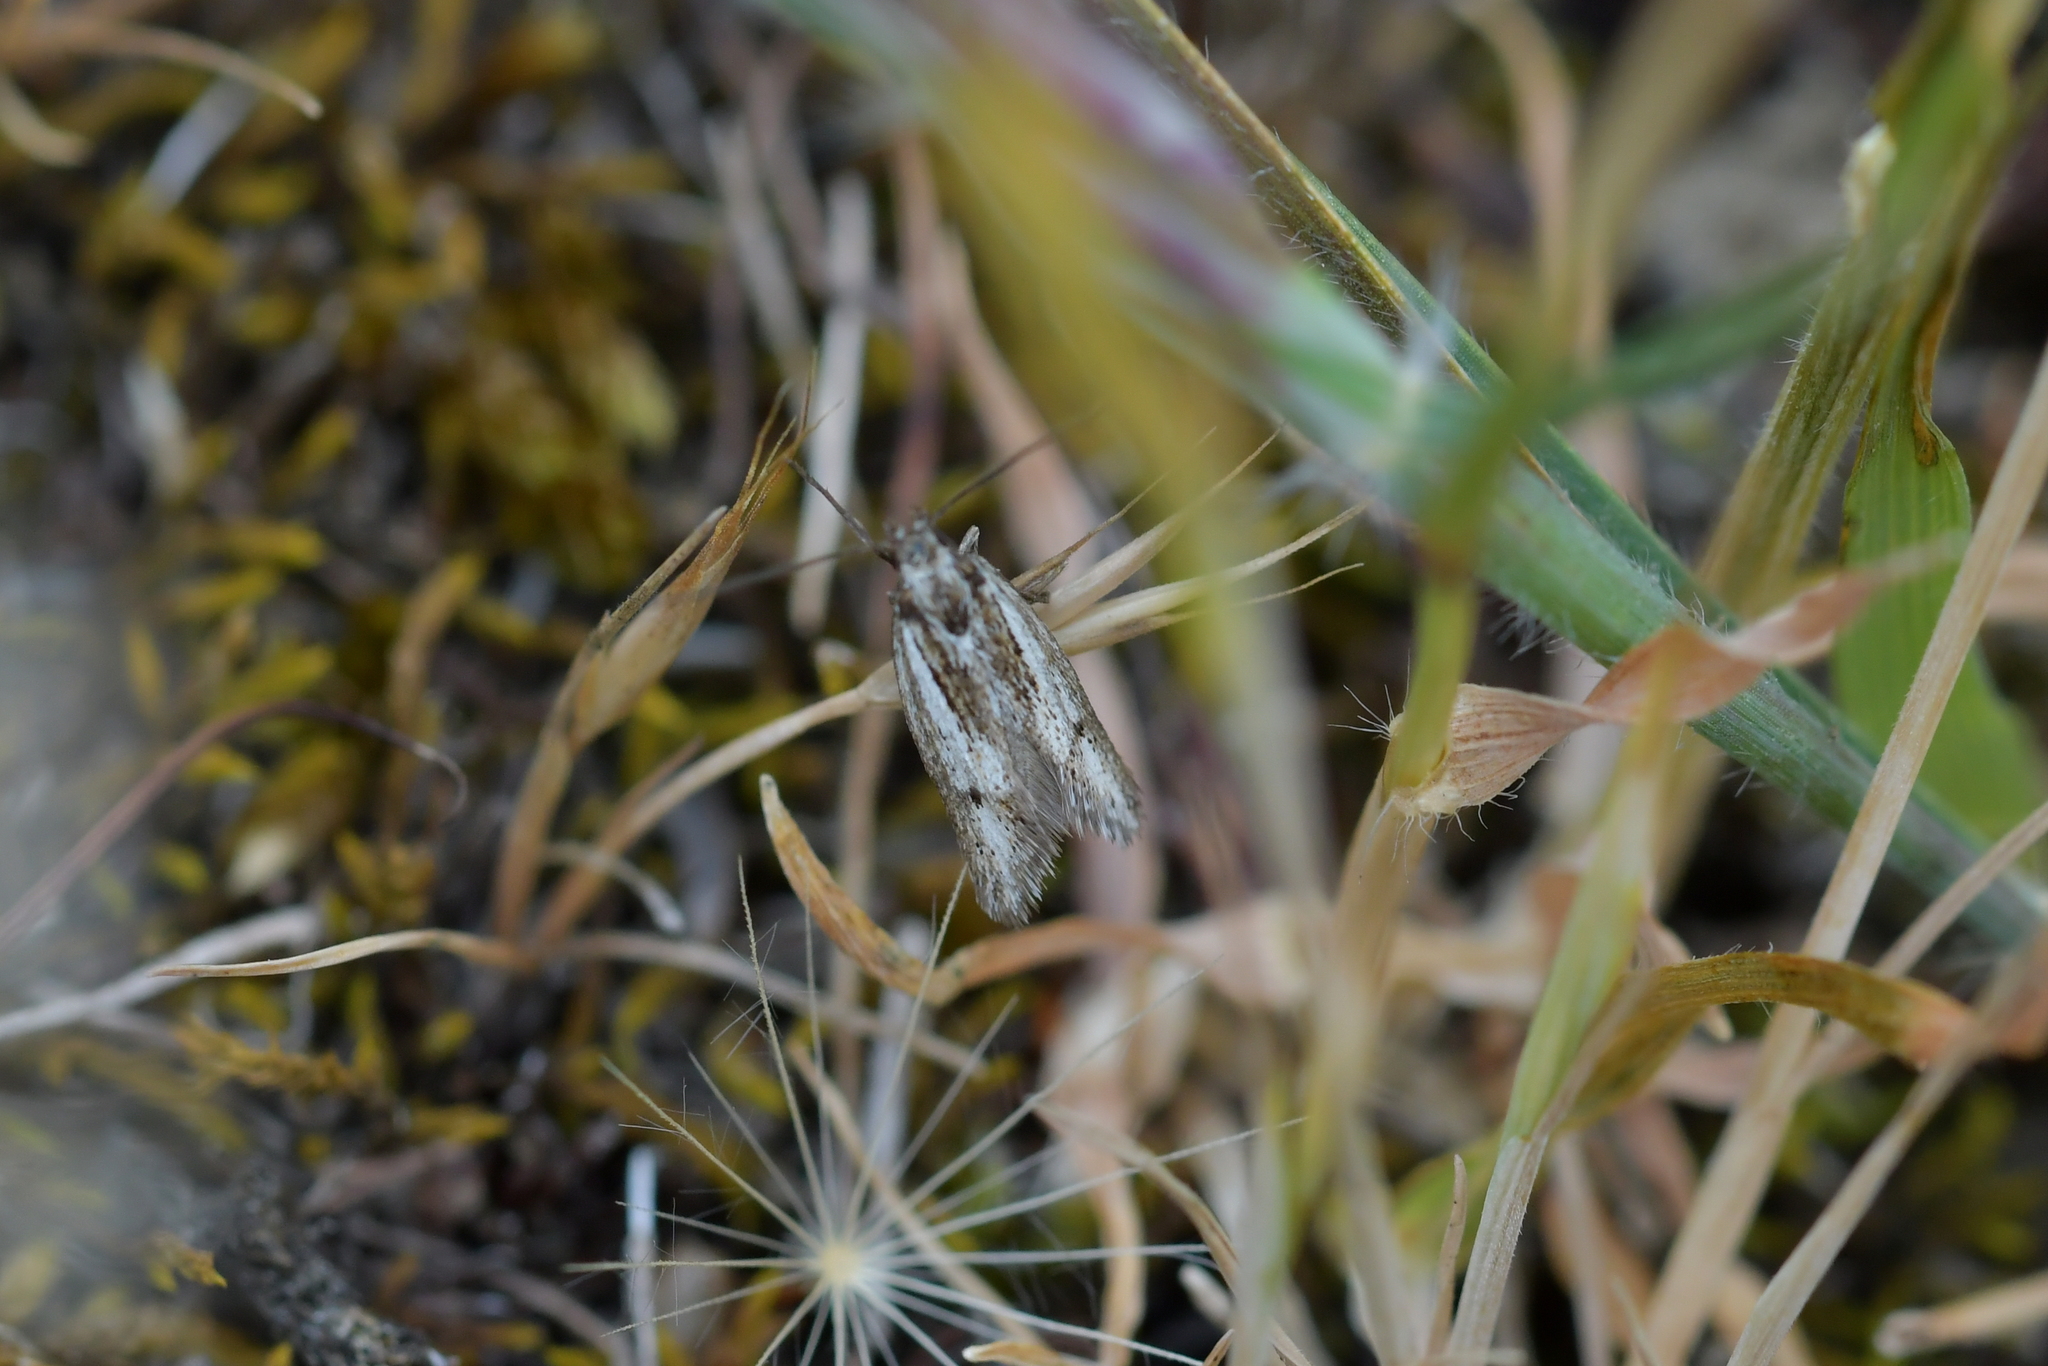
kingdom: Animalia
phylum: Arthropoda
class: Insecta
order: Lepidoptera
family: Oecophoridae
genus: Prepalla
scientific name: Prepalla
